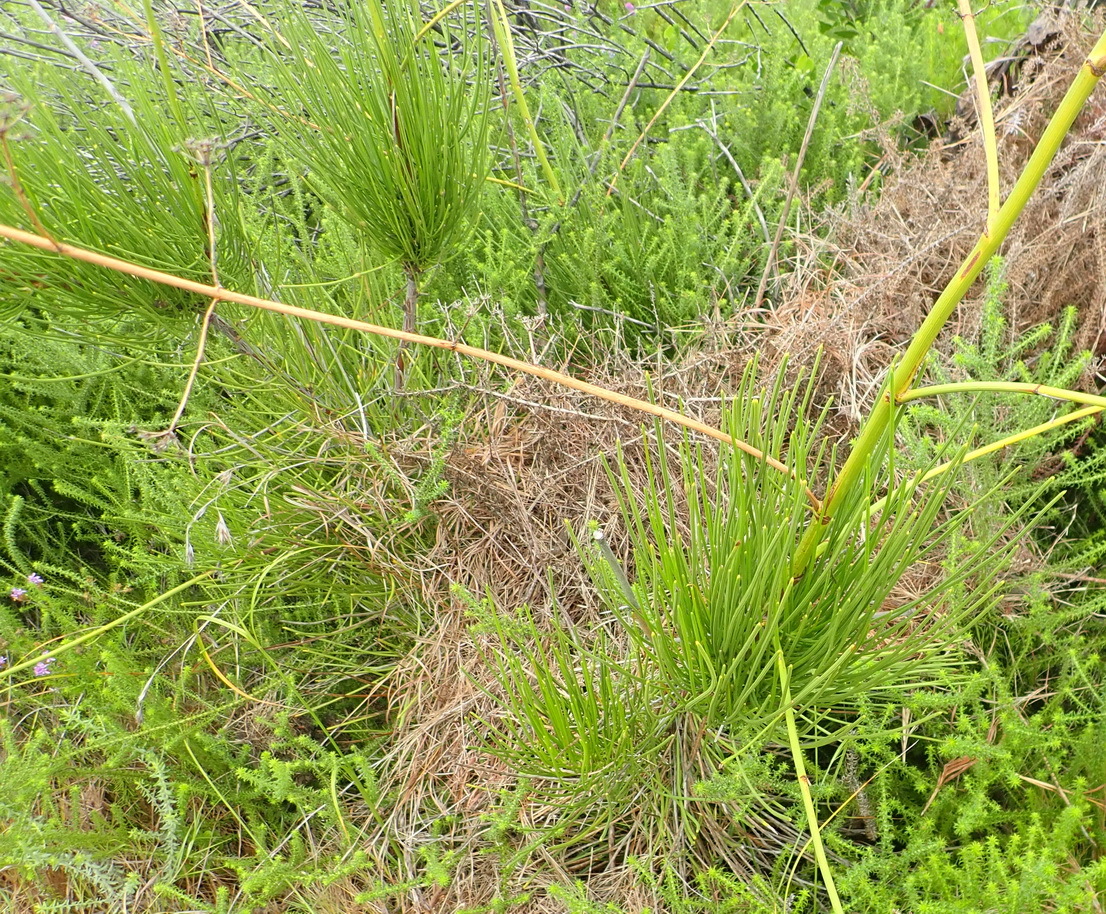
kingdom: Plantae
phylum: Tracheophyta
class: Magnoliopsida
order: Apiales
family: Apiaceae
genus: Anginon
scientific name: Anginon difforme
